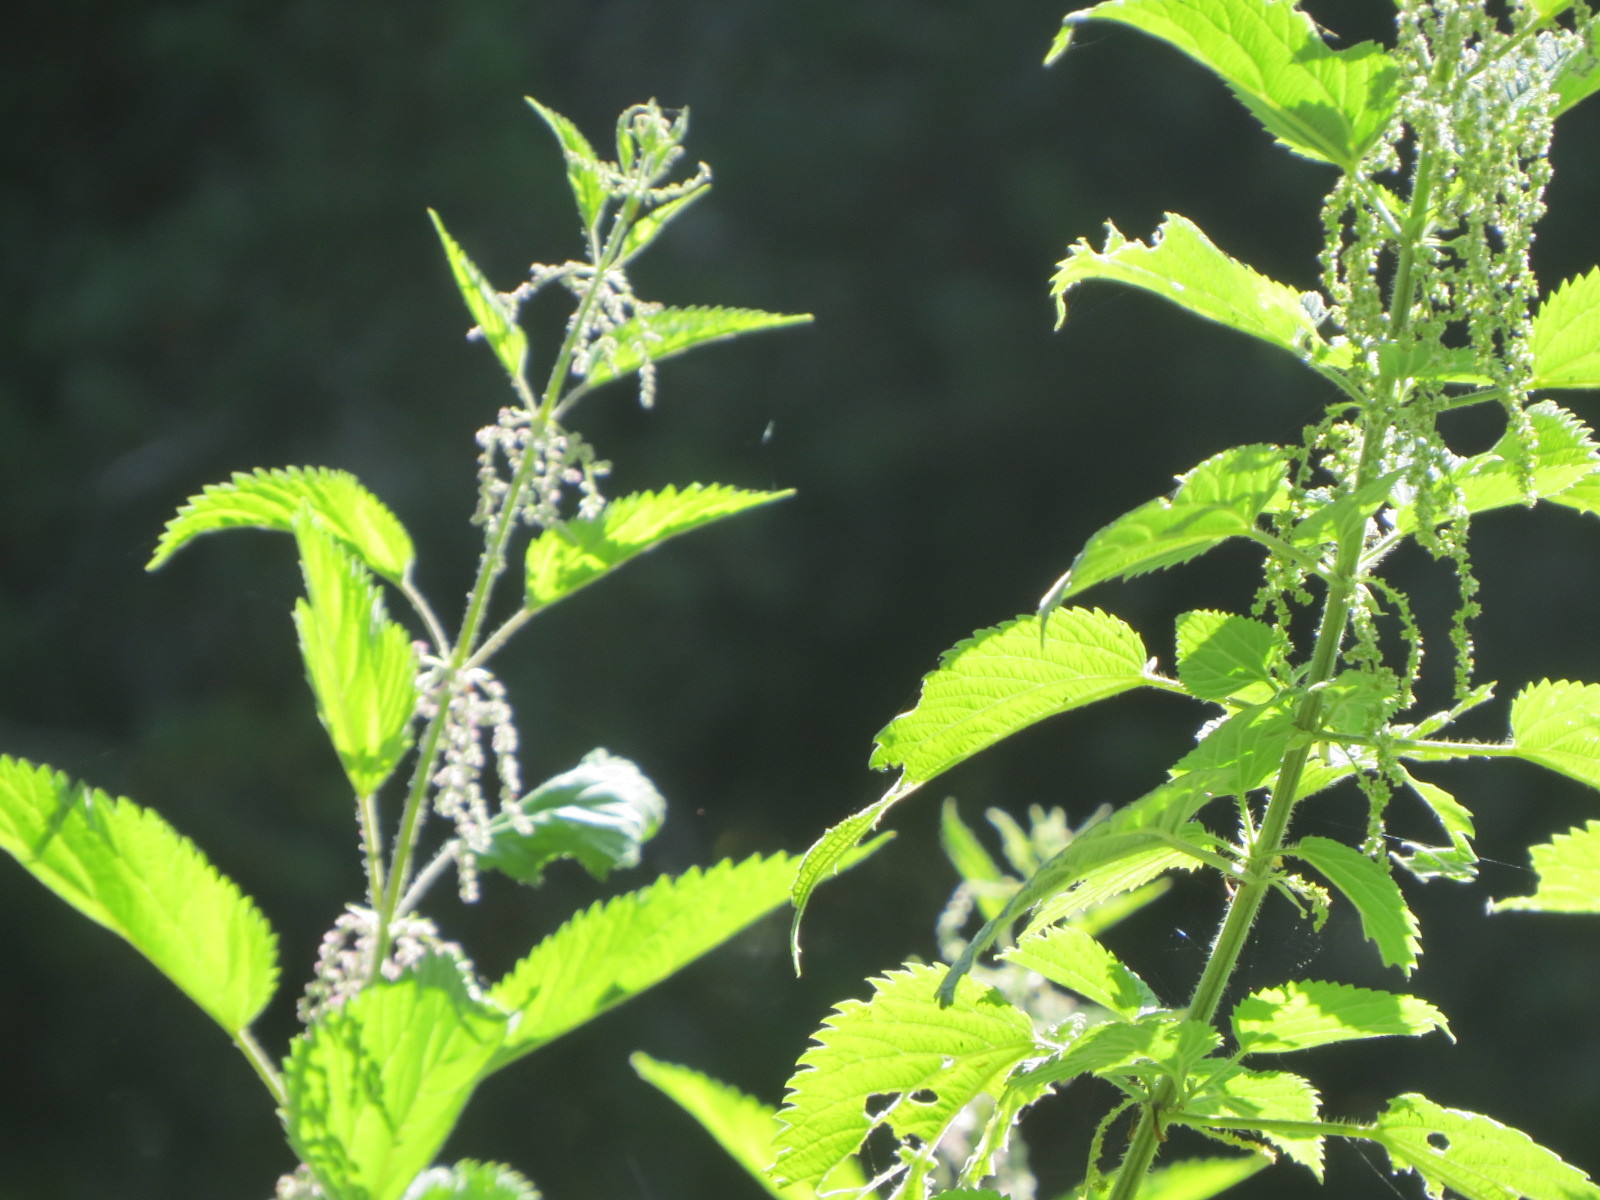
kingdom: Plantae
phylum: Tracheophyta
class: Magnoliopsida
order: Rosales
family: Urticaceae
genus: Urtica
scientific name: Urtica gracilis
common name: Slender stinging nettle
